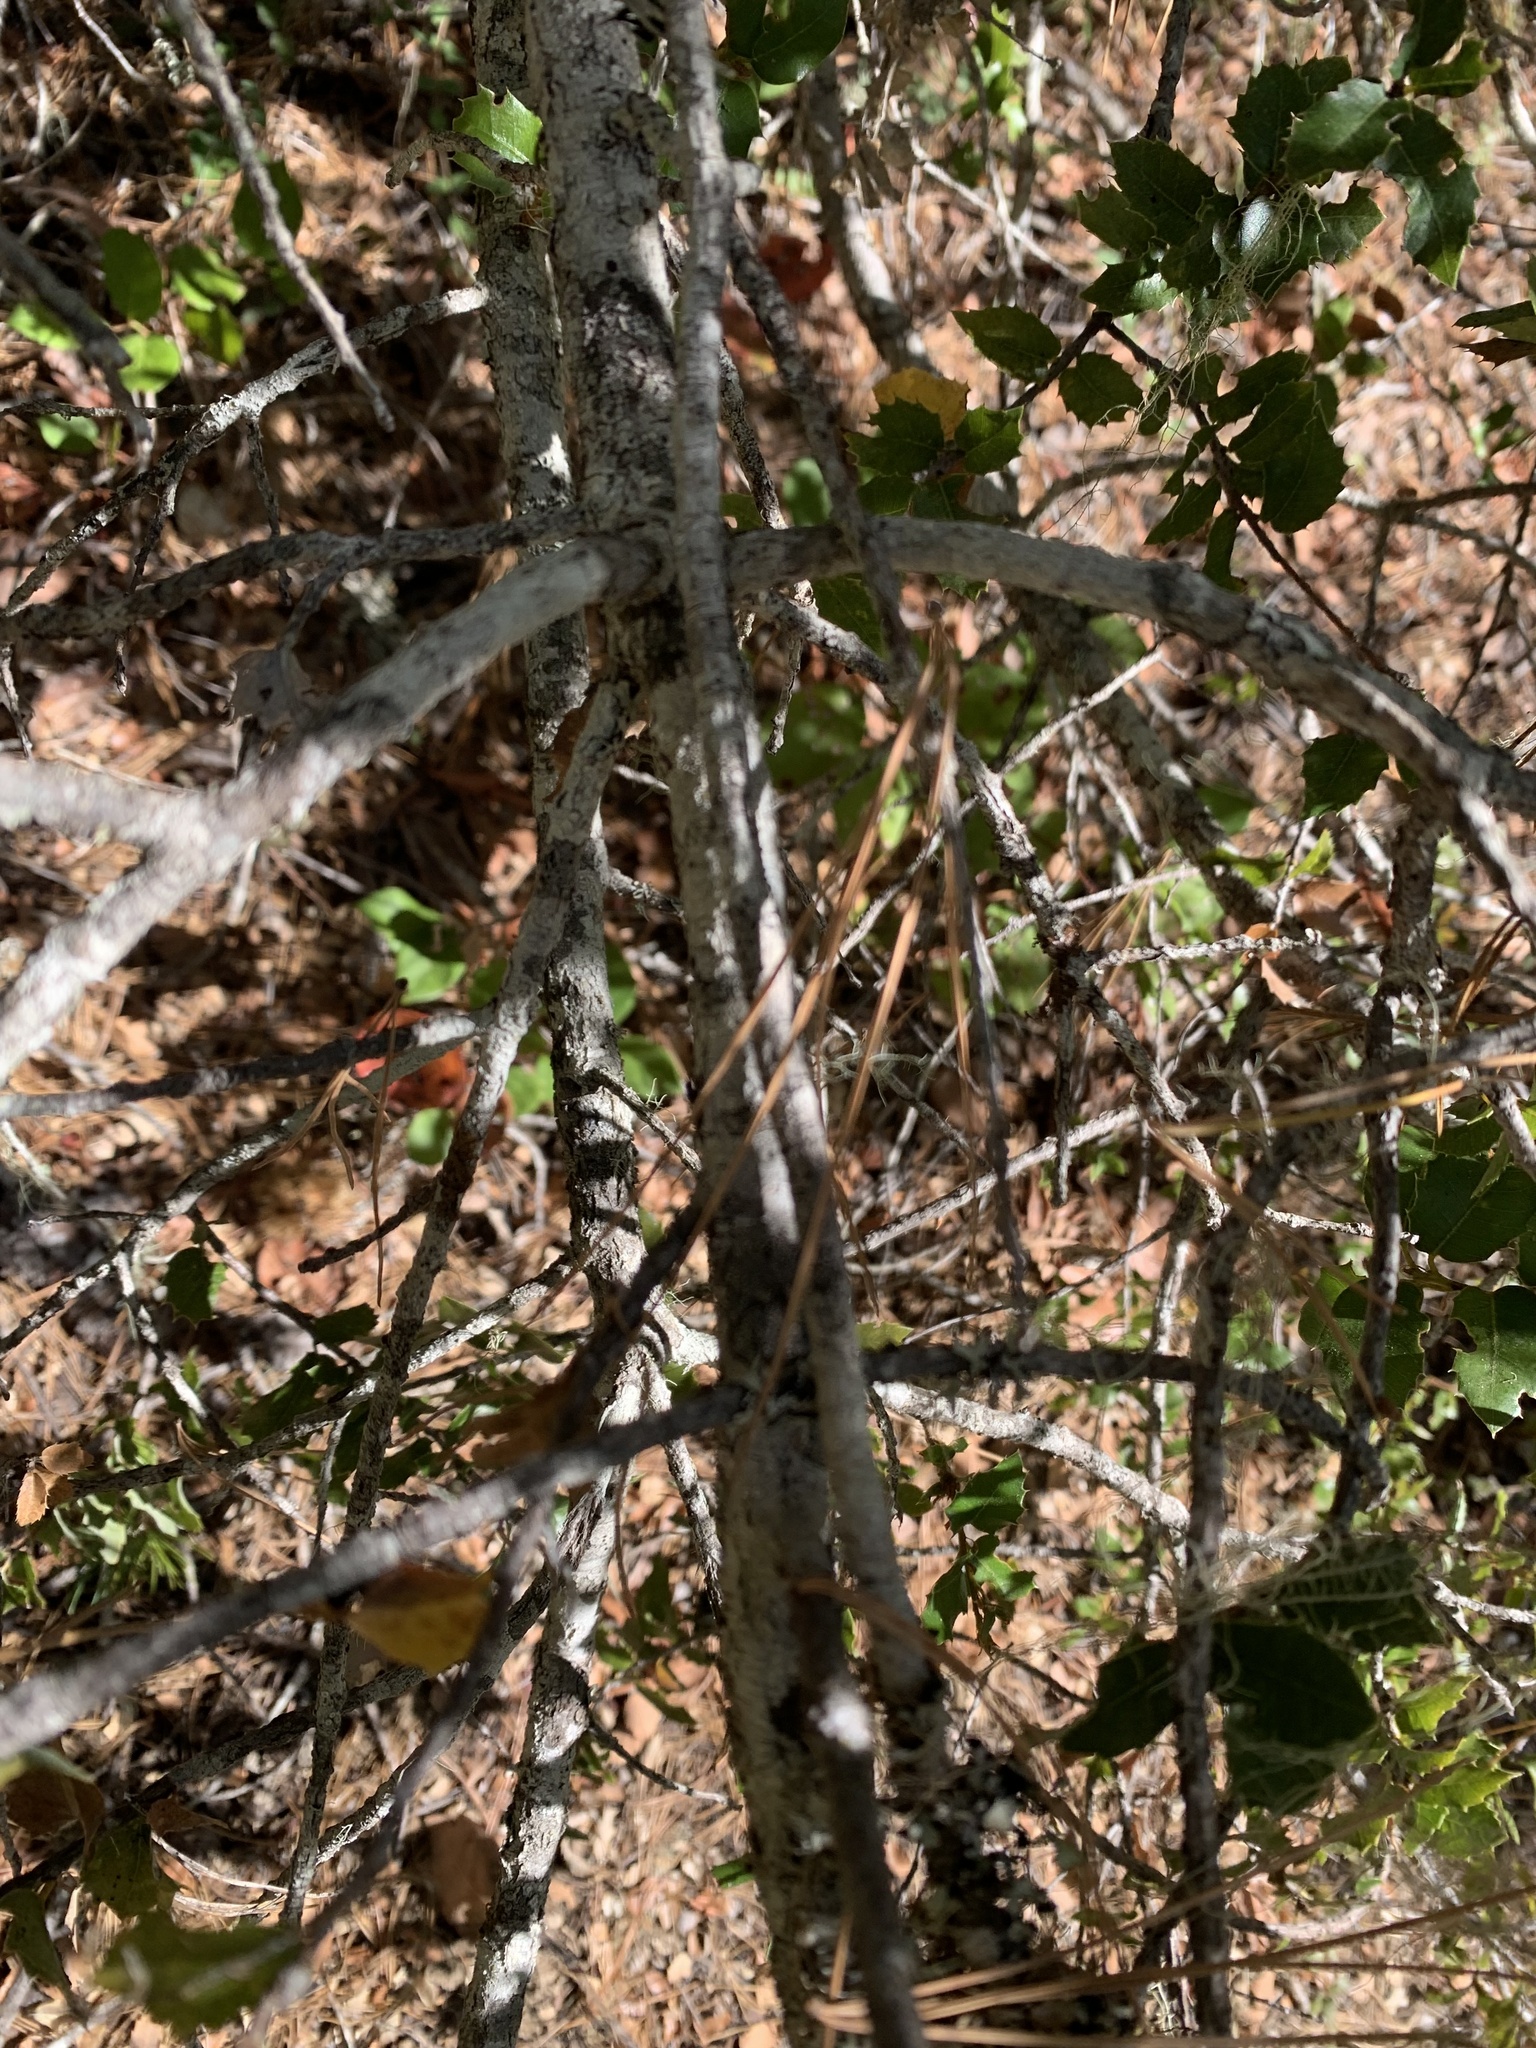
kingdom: Plantae
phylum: Tracheophyta
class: Magnoliopsida
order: Fagales
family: Fagaceae
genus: Quercus
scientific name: Quercus chrysolepis
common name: Canyon live oak
